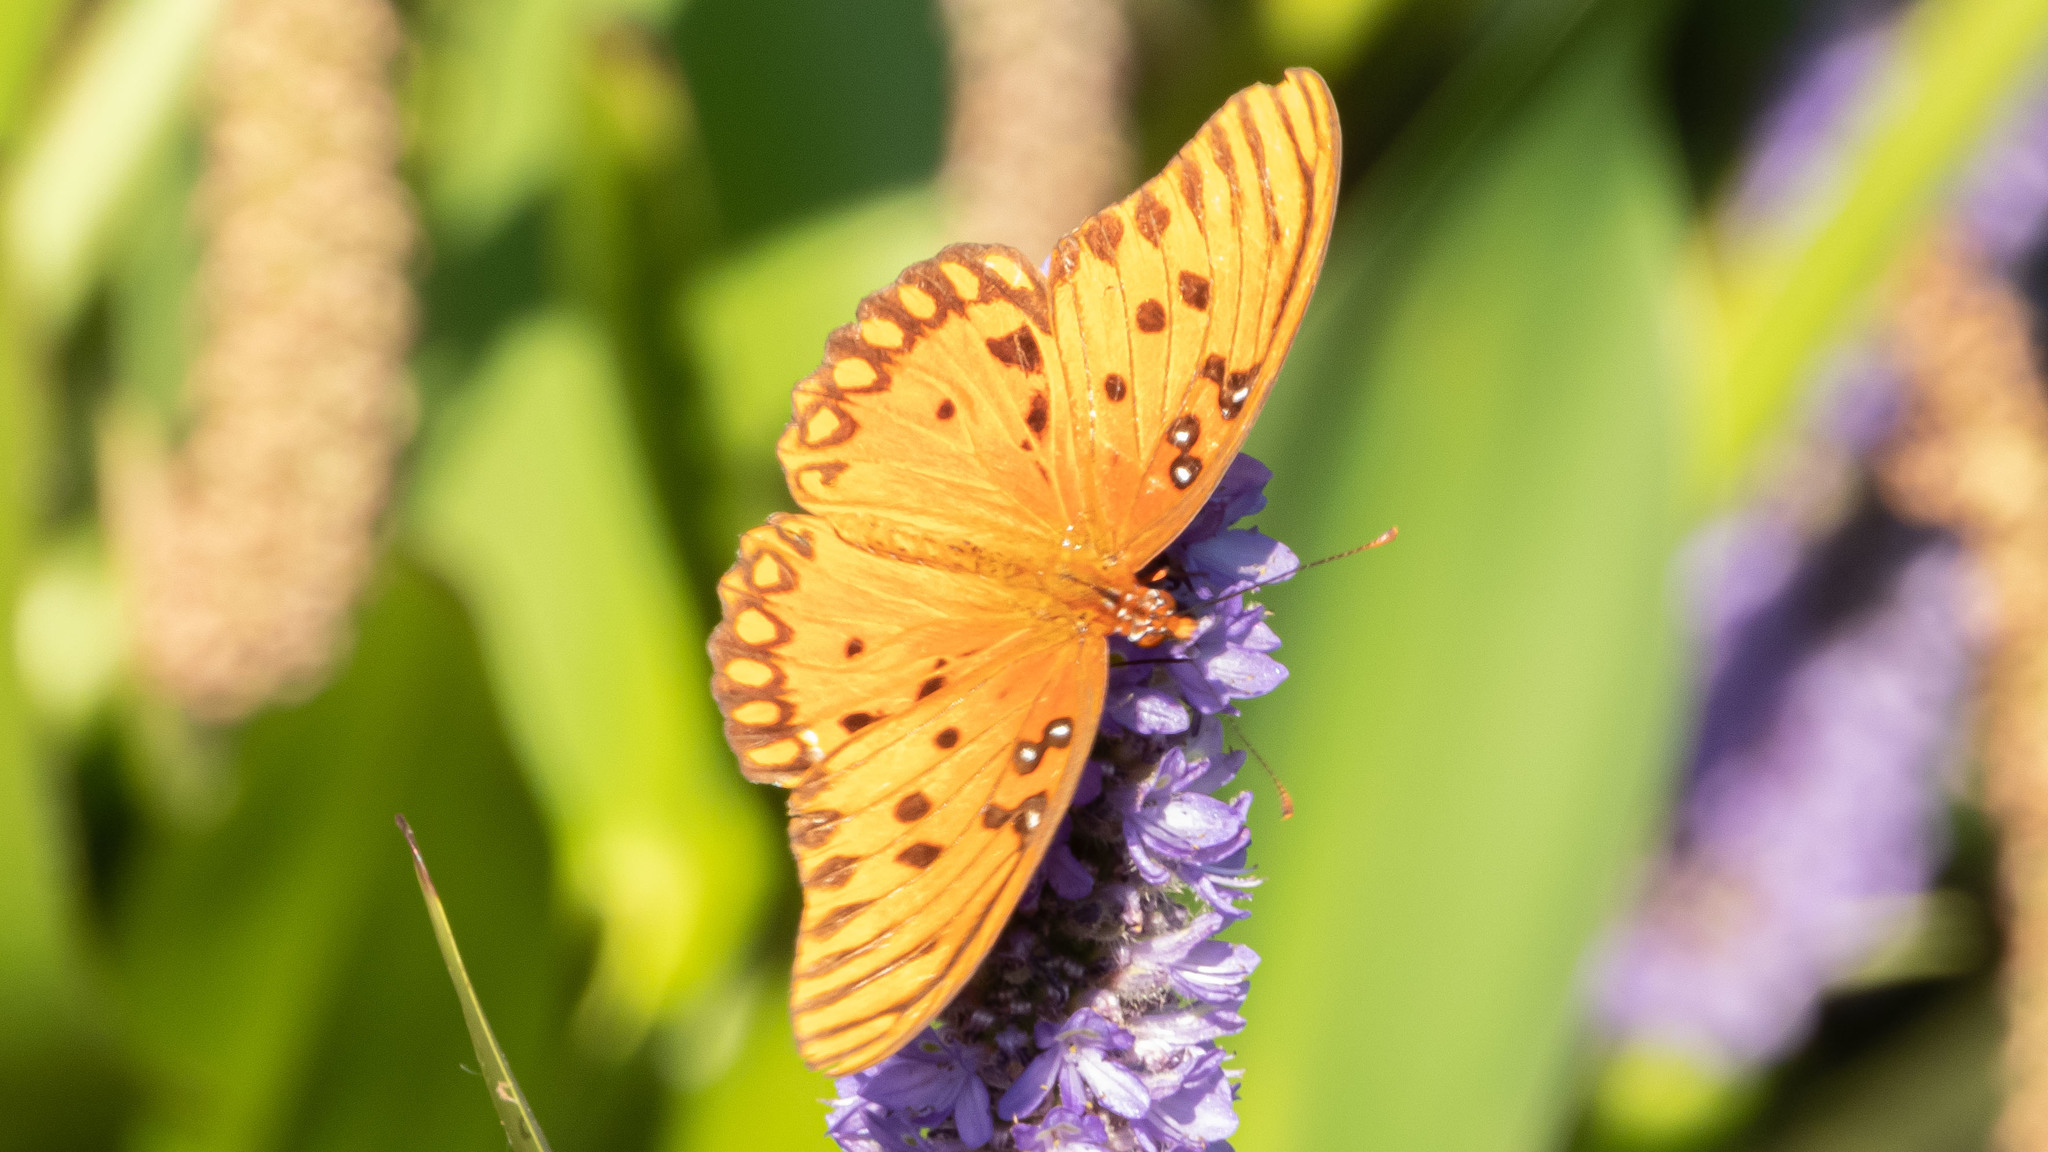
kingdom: Animalia
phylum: Arthropoda
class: Insecta
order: Lepidoptera
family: Nymphalidae
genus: Dione
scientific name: Dione vanillae
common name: Gulf fritillary
